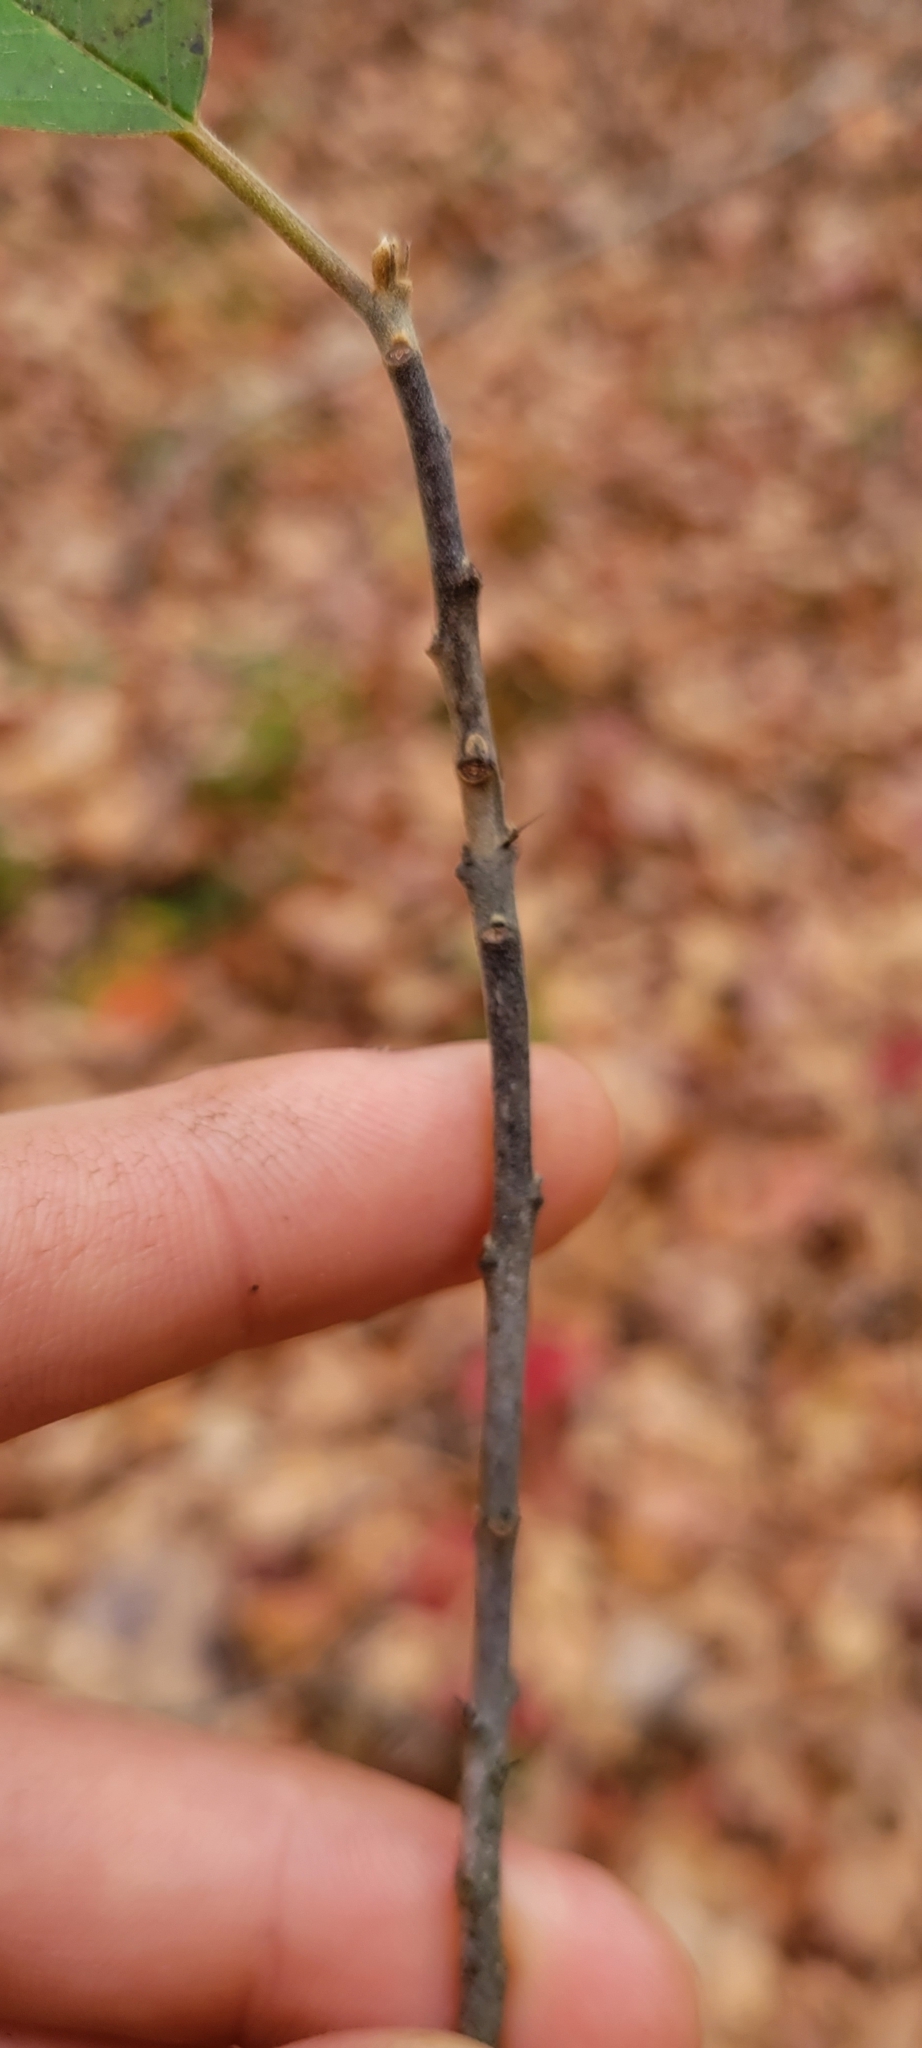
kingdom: Plantae
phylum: Tracheophyta
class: Magnoliopsida
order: Rosales
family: Rhamnaceae
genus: Frangula
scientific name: Frangula caroliniana
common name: Carolina buckthorn
